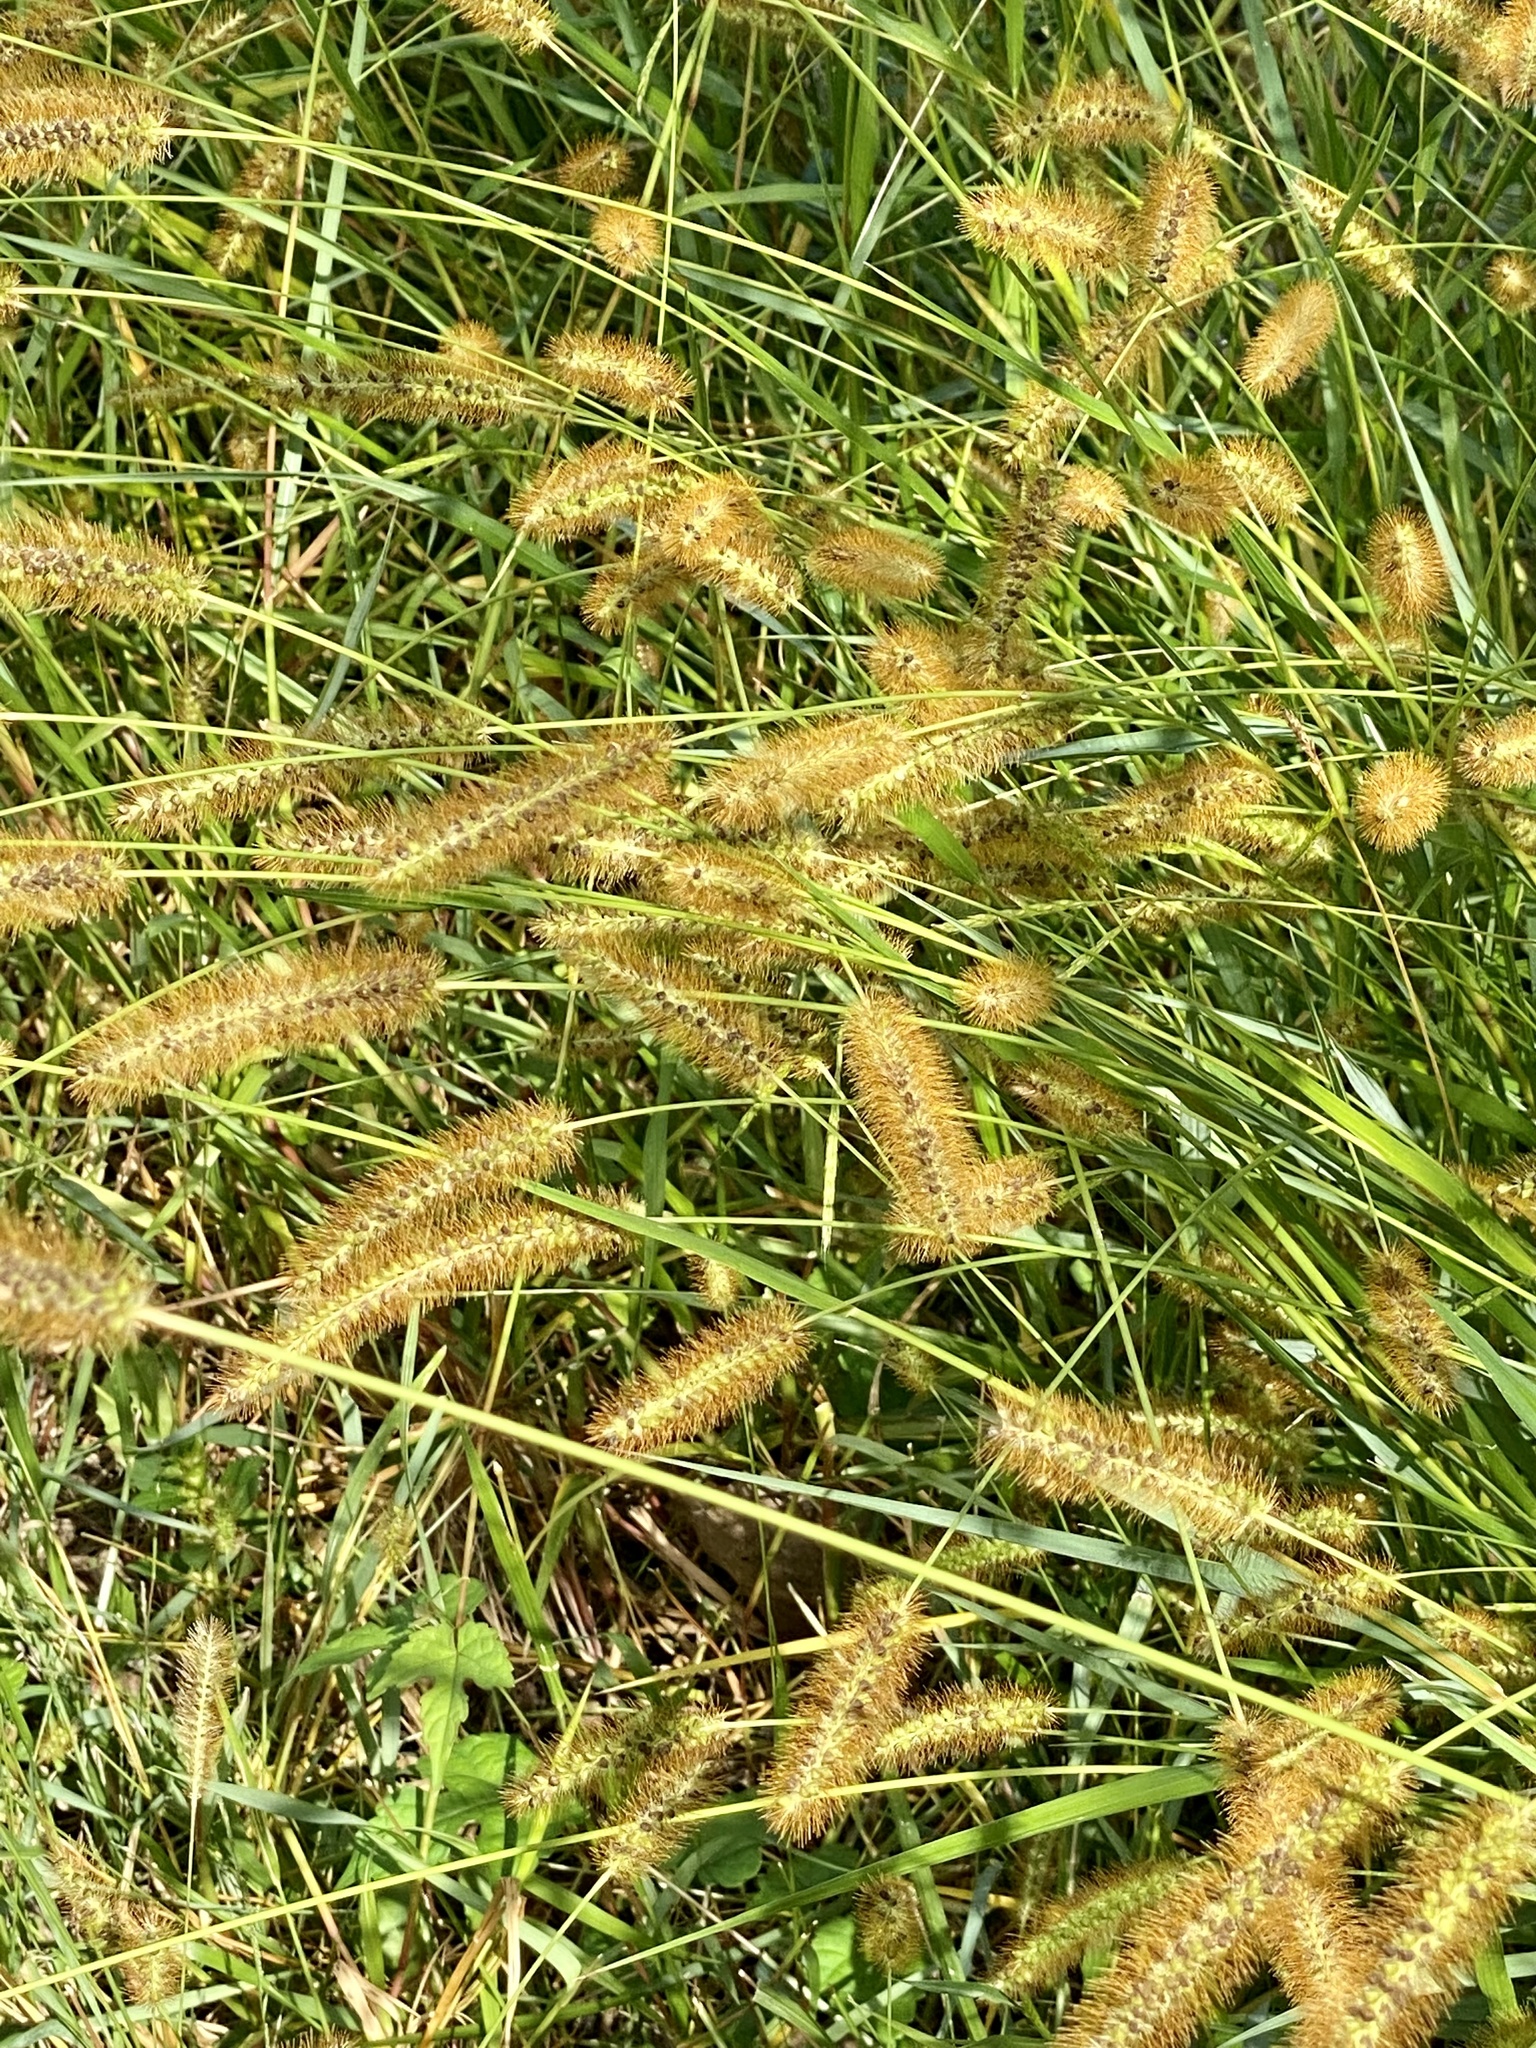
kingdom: Plantae
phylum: Tracheophyta
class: Liliopsida
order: Poales
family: Poaceae
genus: Setaria
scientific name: Setaria pumila
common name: Yellow bristle-grass
